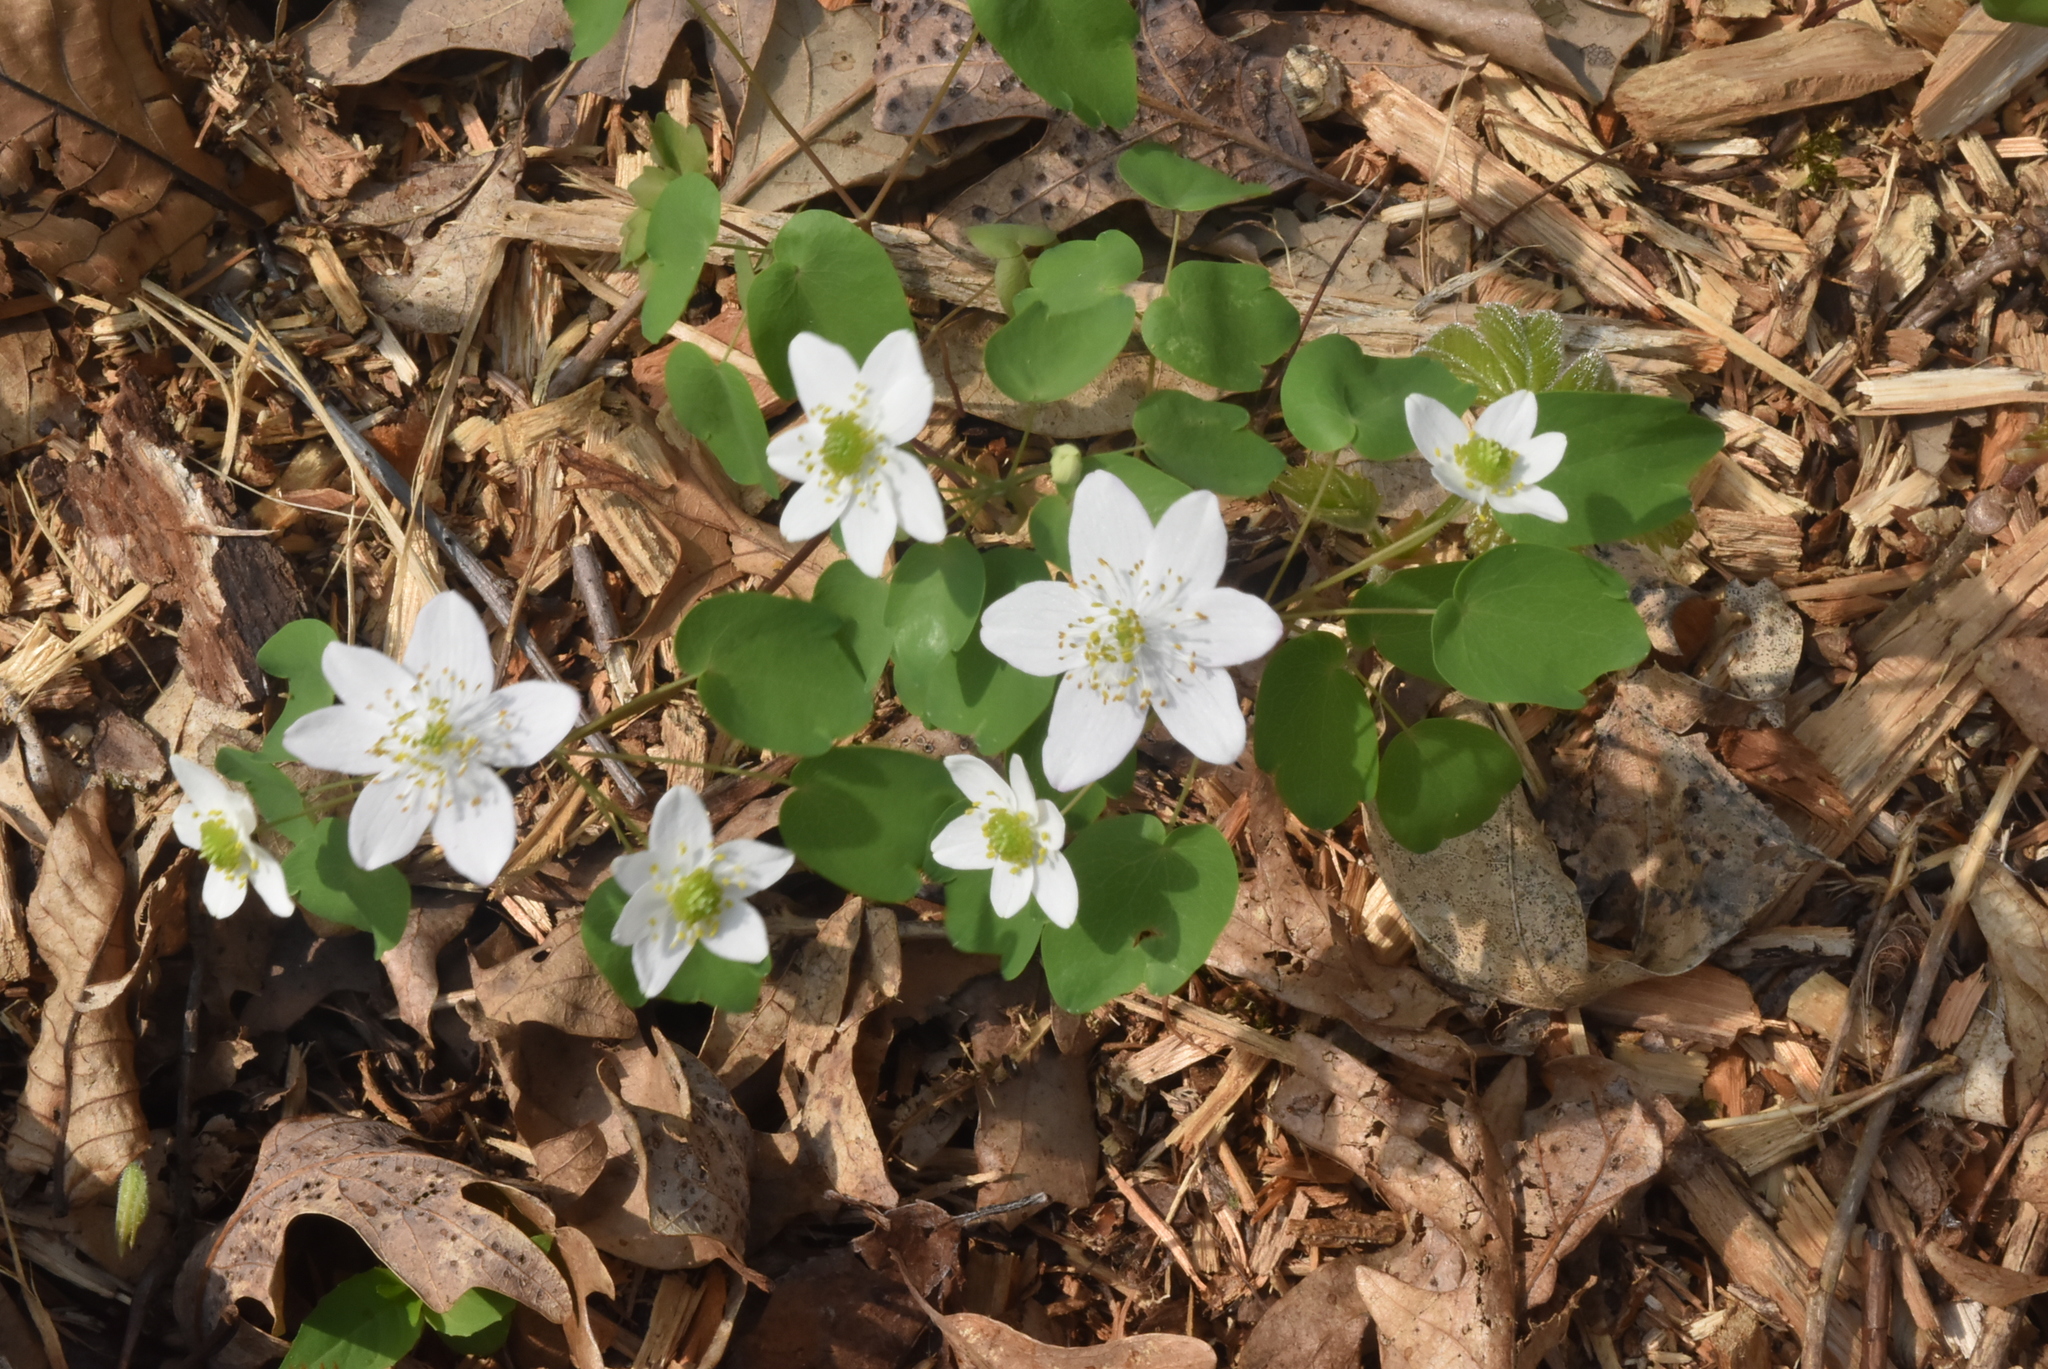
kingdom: Plantae
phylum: Tracheophyta
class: Magnoliopsida
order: Ranunculales
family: Ranunculaceae
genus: Thalictrum
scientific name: Thalictrum thalictroides
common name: Rue-anemone
